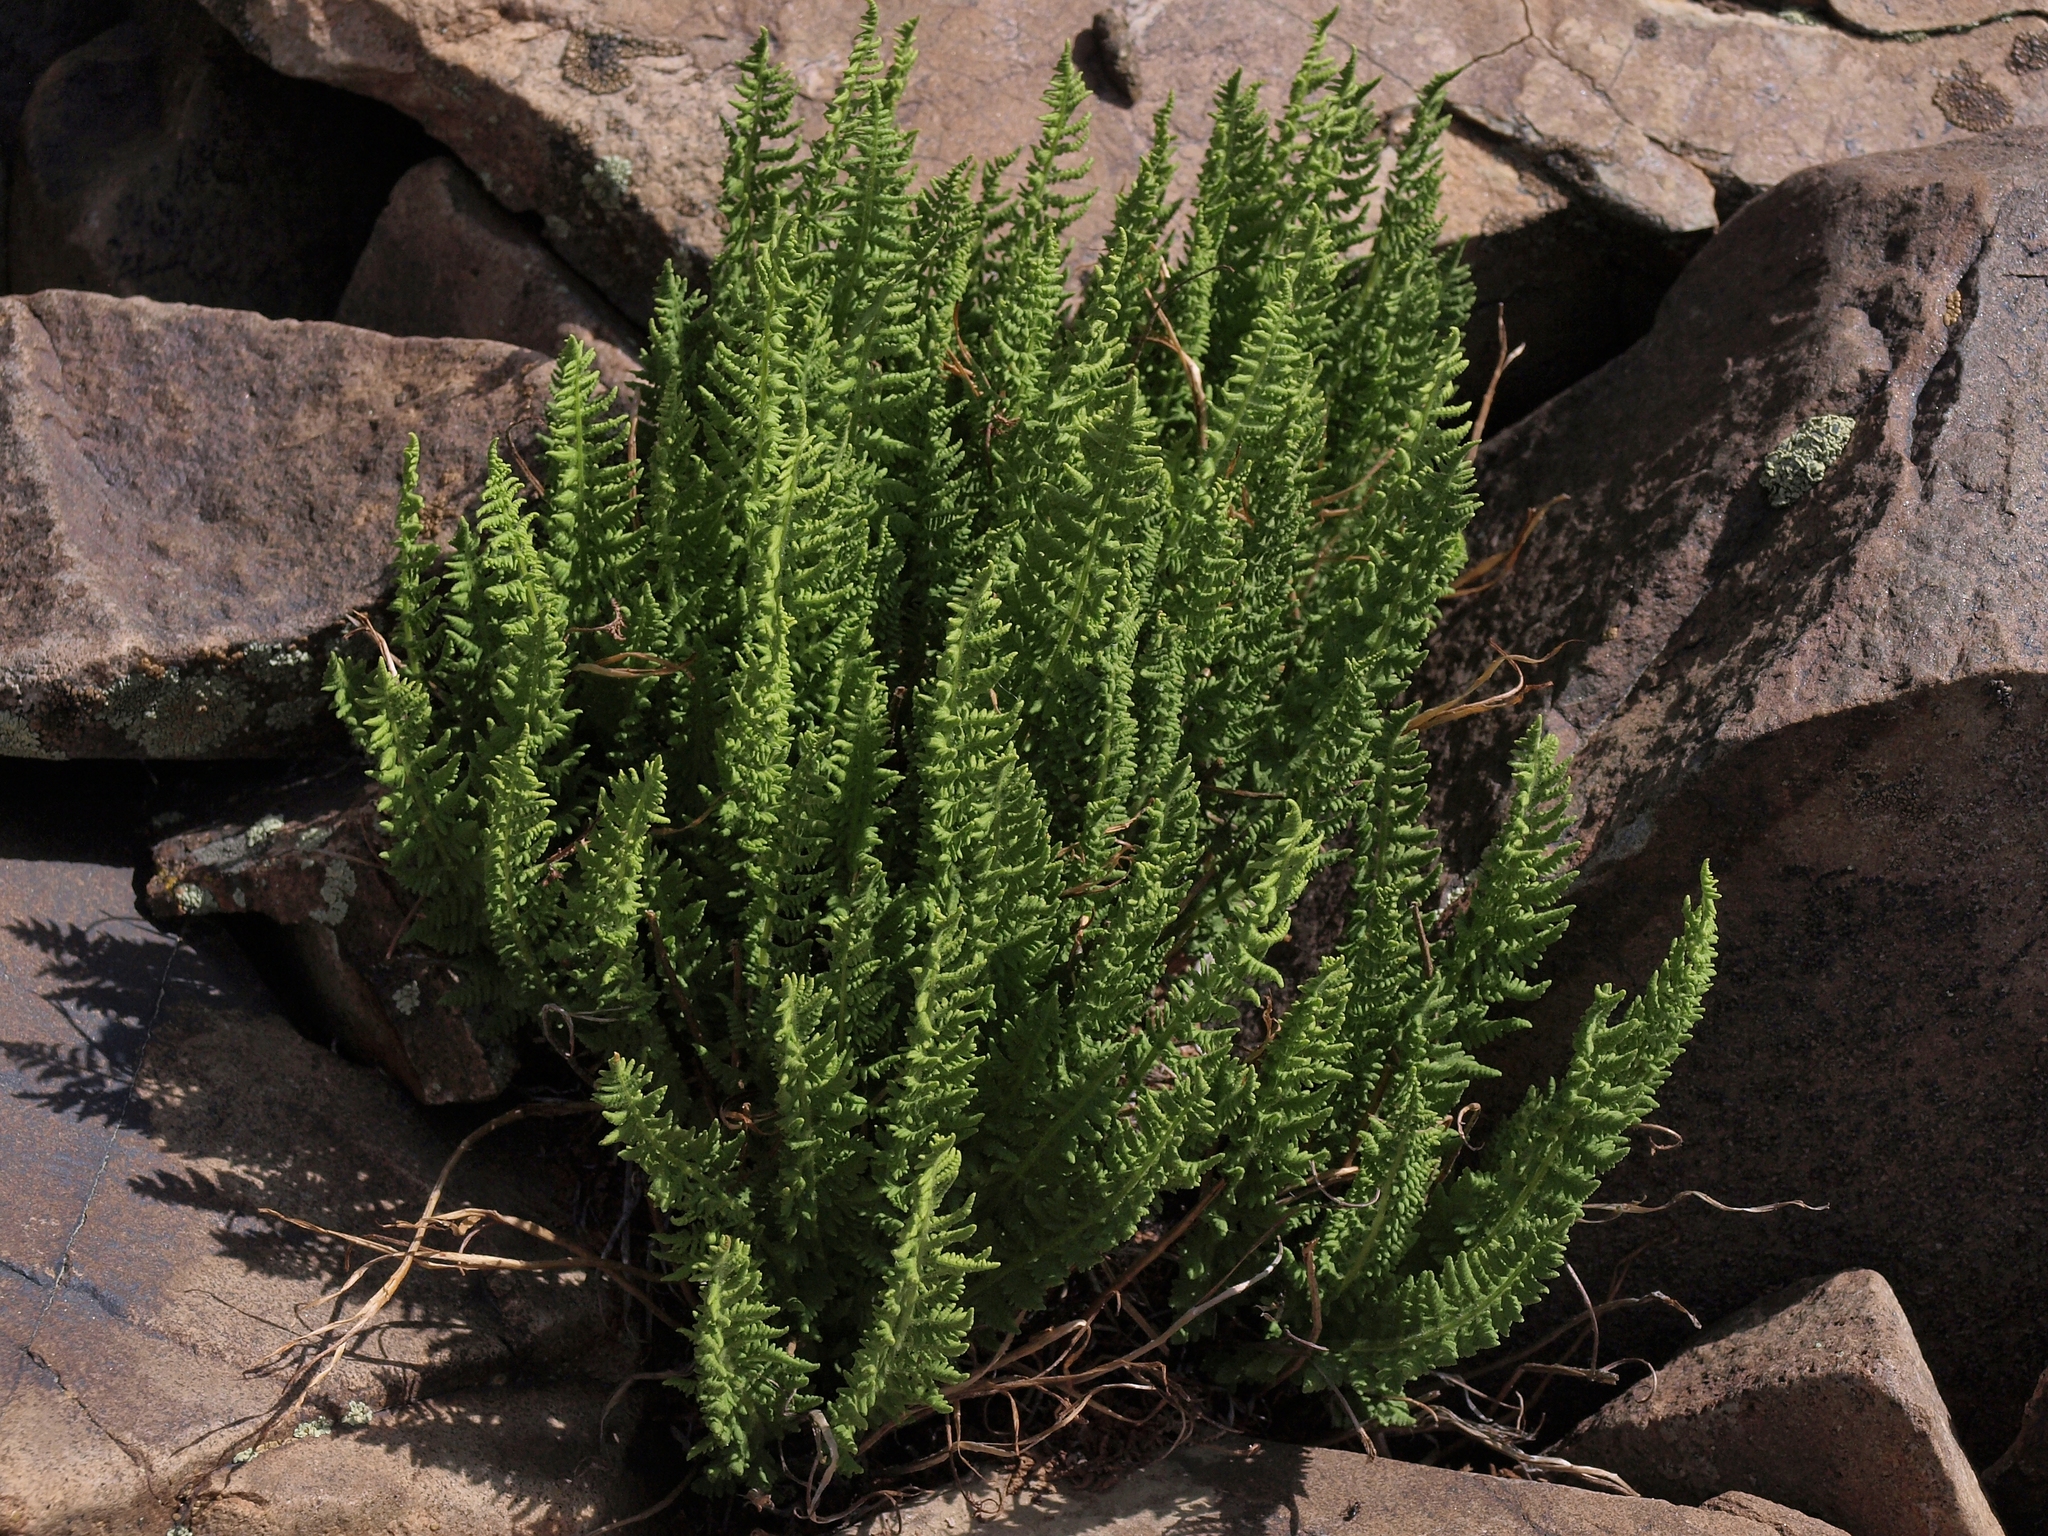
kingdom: Plantae
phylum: Tracheophyta
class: Polypodiopsida
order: Polypodiales
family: Woodsiaceae
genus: Physematium
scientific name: Physematium scopulinum
